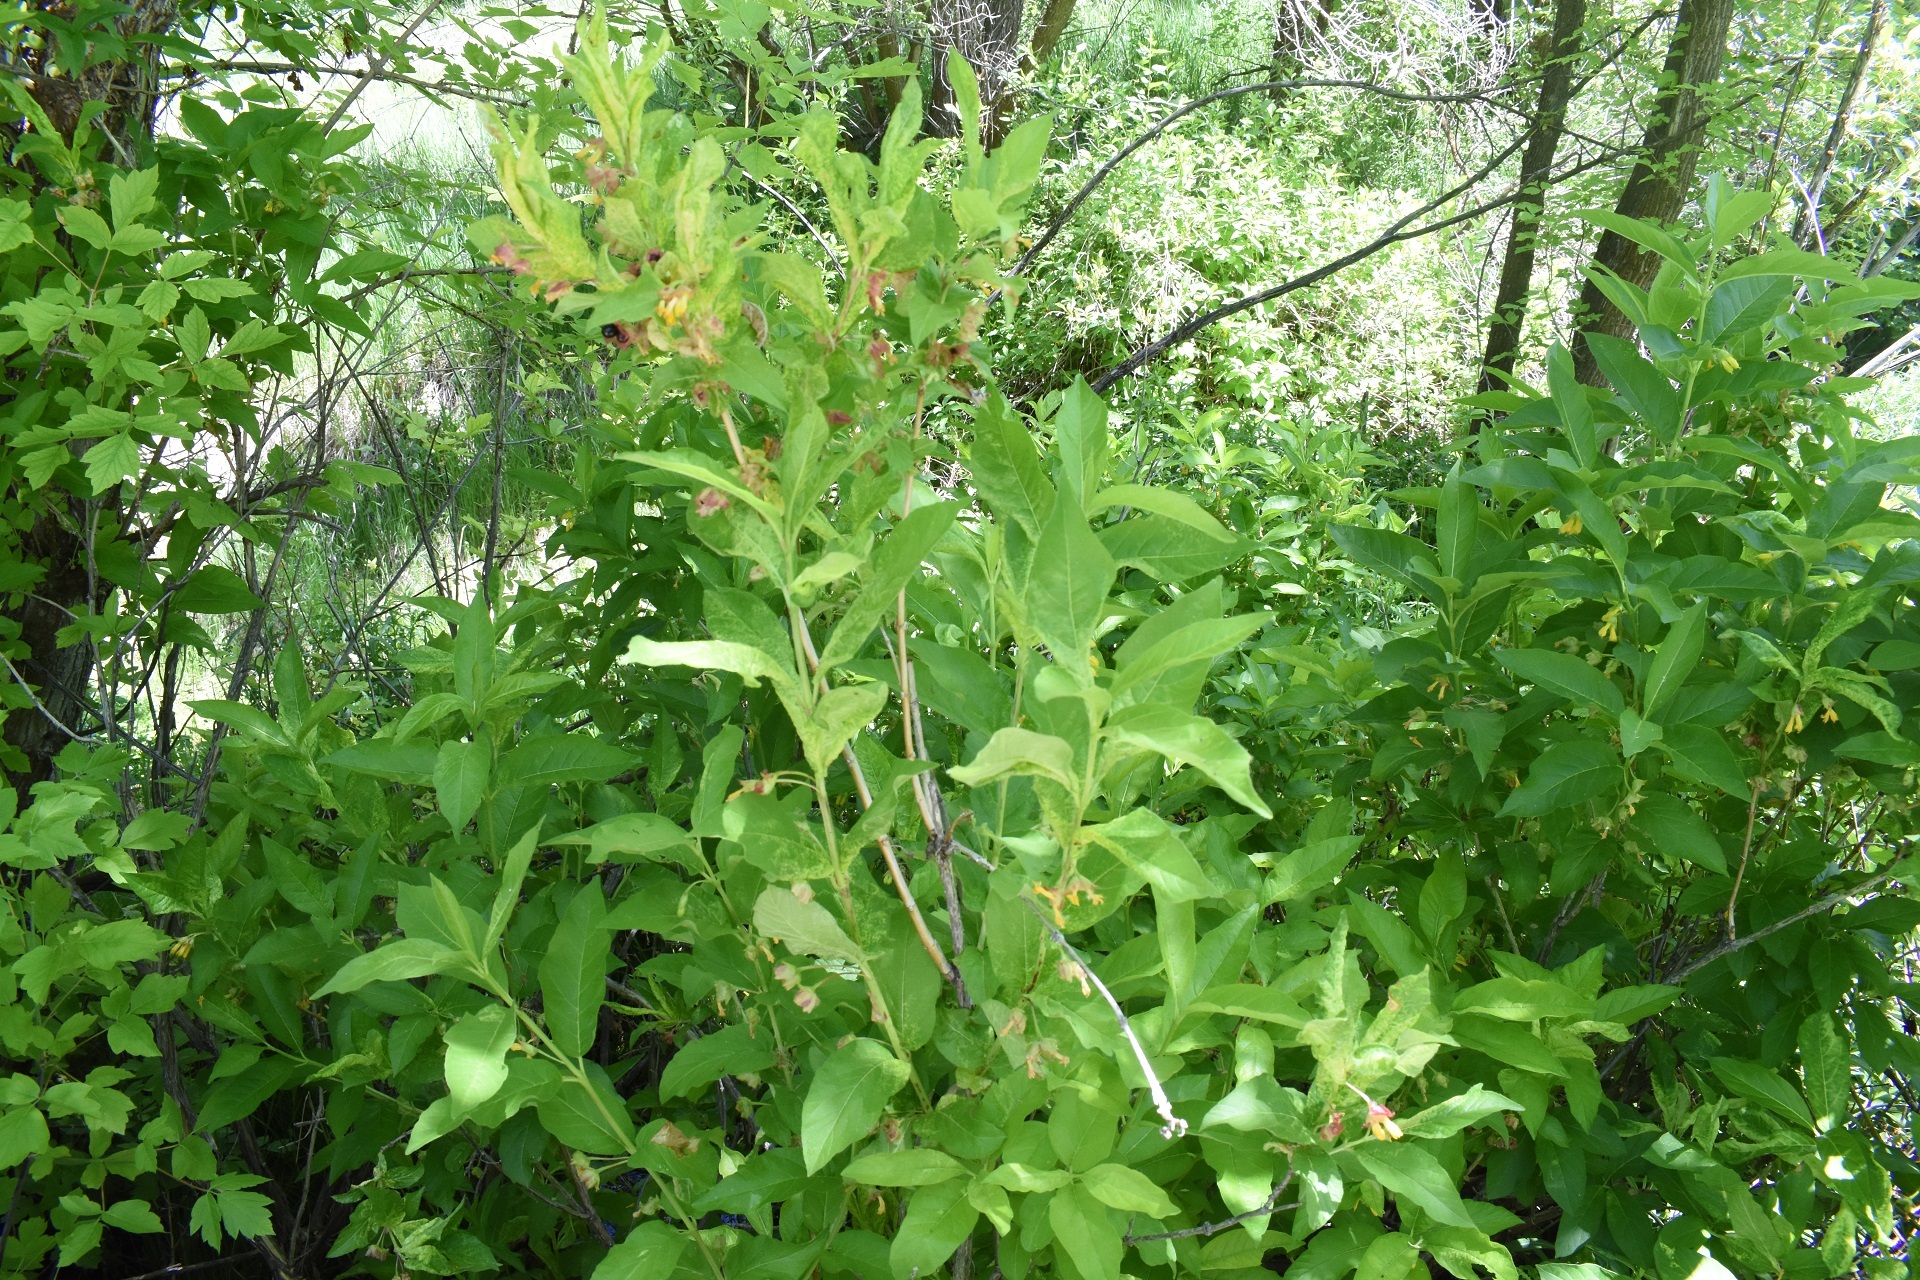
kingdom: Plantae
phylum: Tracheophyta
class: Magnoliopsida
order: Dipsacales
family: Caprifoliaceae
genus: Lonicera
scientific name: Lonicera involucrata
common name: Californian honeysuckle
